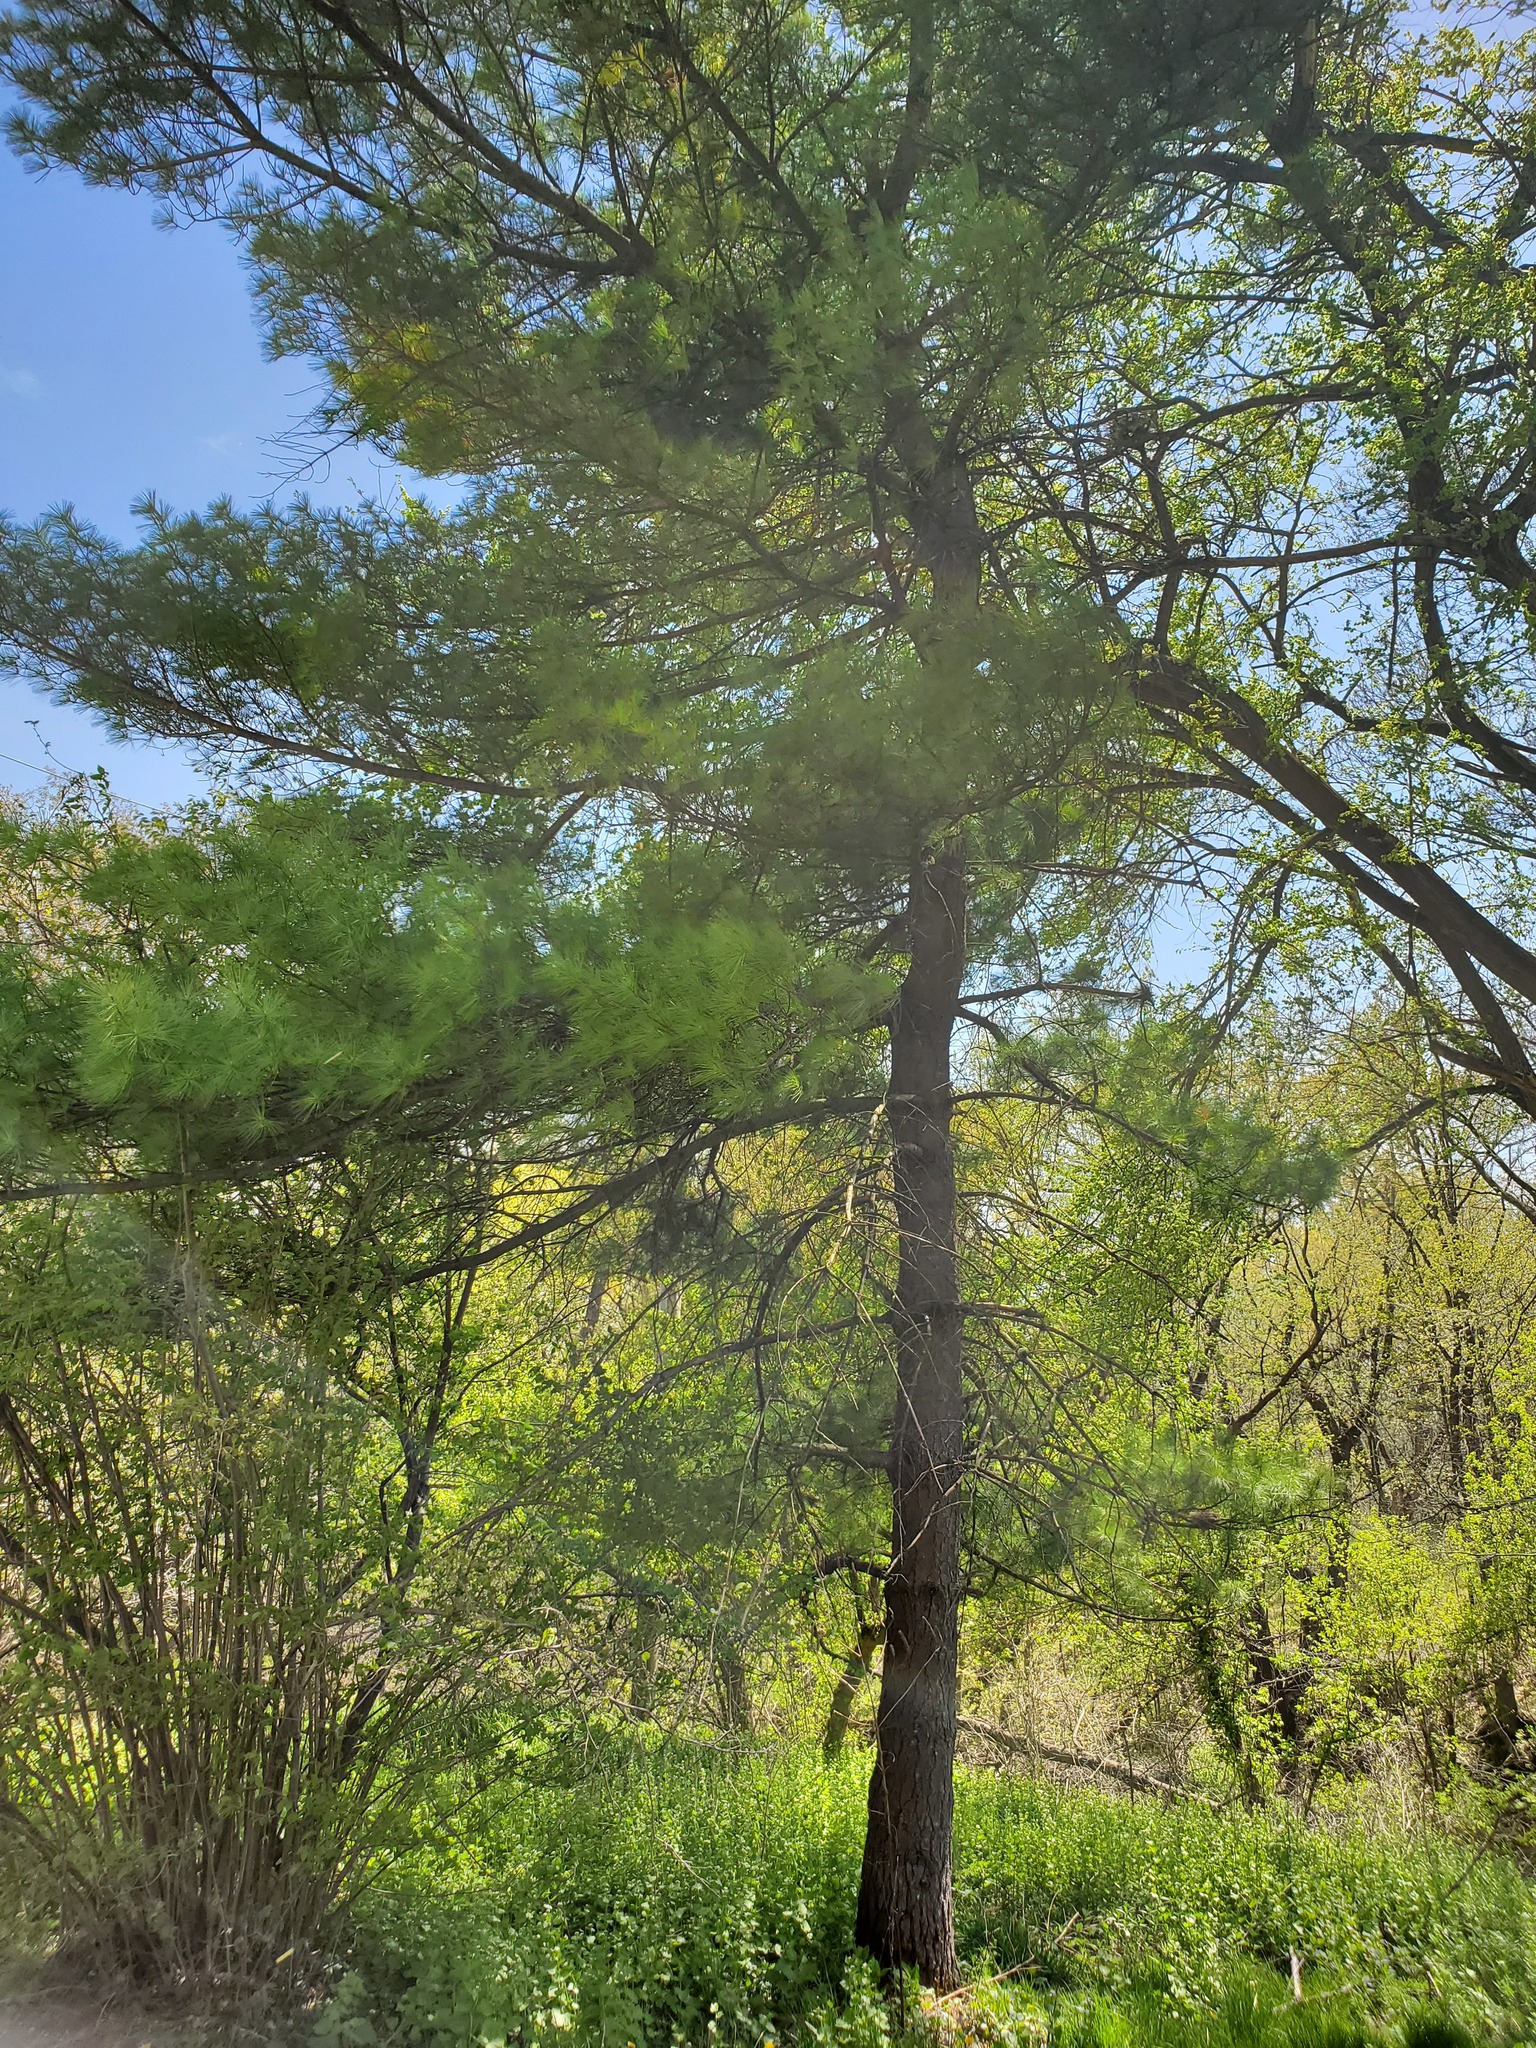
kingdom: Plantae
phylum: Tracheophyta
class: Pinopsida
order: Pinales
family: Pinaceae
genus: Pinus
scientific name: Pinus strobus
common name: Weymouth pine
